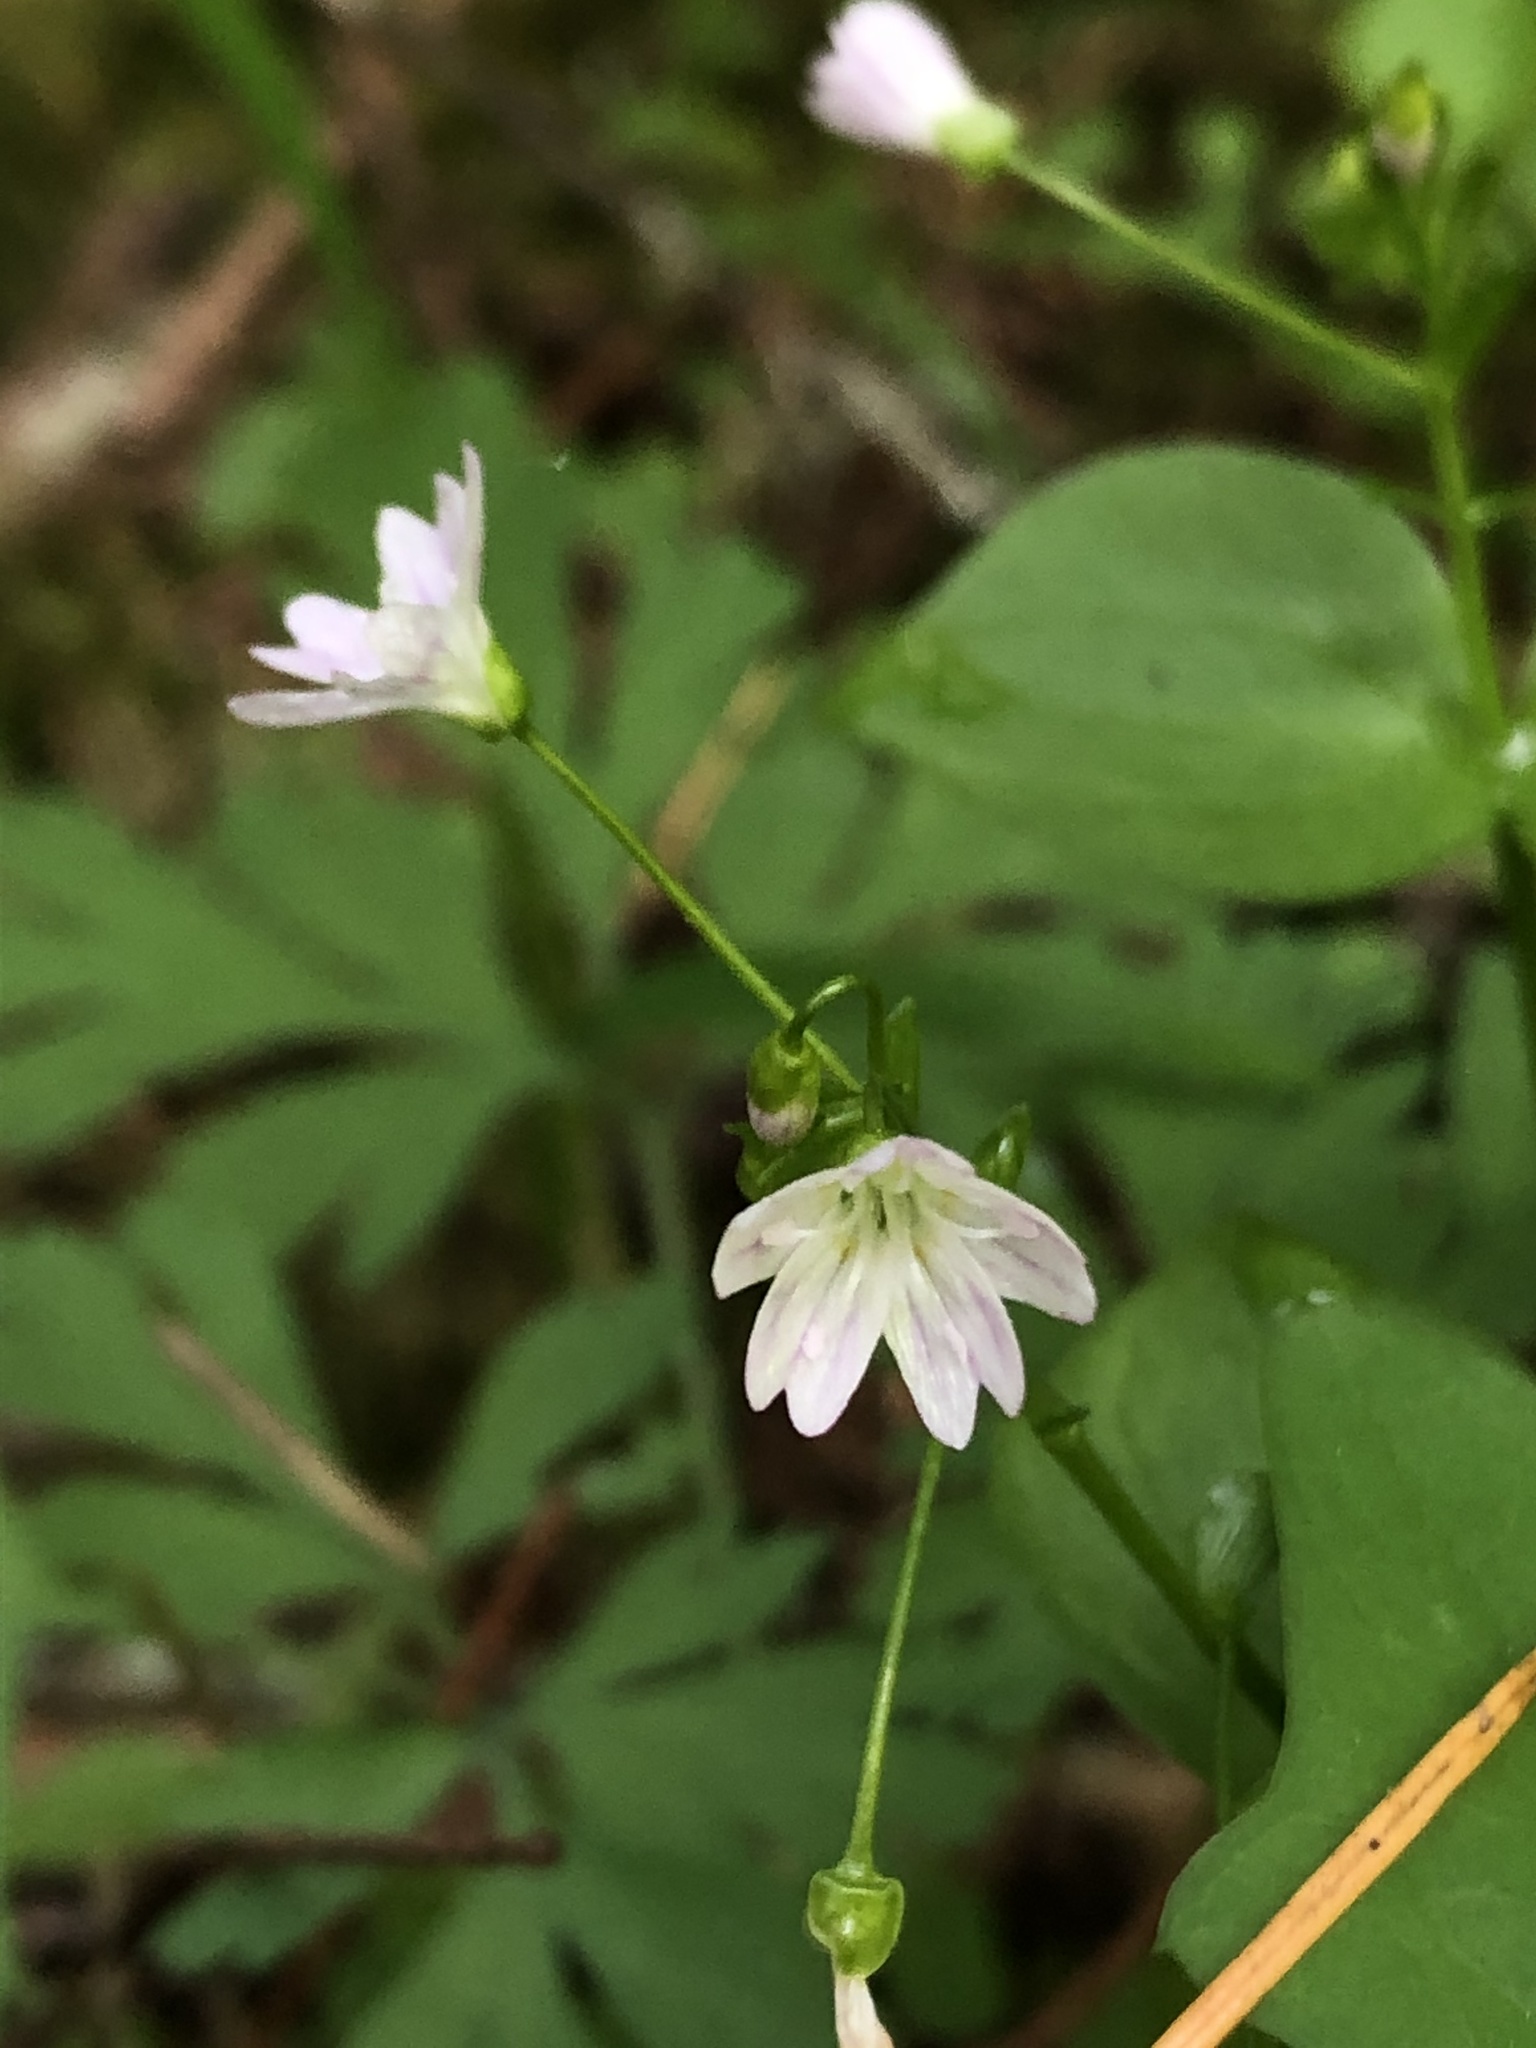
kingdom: Plantae
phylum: Tracheophyta
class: Magnoliopsida
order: Caryophyllales
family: Montiaceae
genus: Claytonia
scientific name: Claytonia sibirica
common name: Pink purslane
